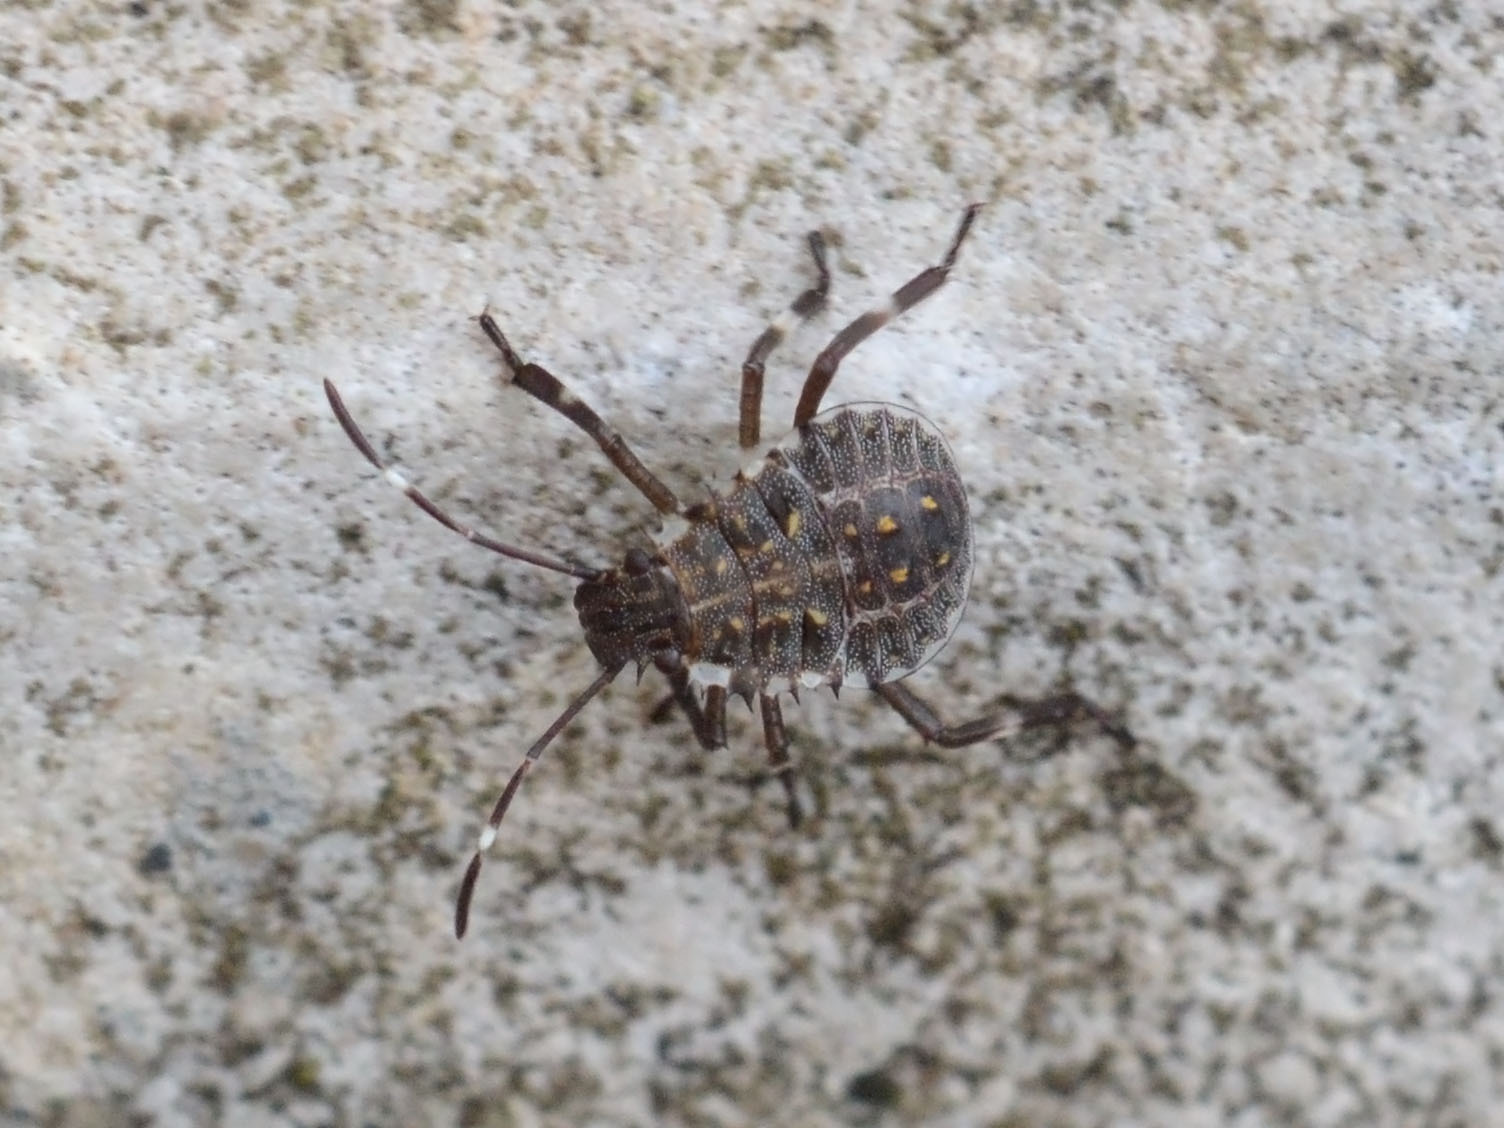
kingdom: Animalia
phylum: Arthropoda
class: Insecta
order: Hemiptera
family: Pentatomidae
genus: Halyomorpha
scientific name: Halyomorpha halys
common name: Brown marmorated stink bug
